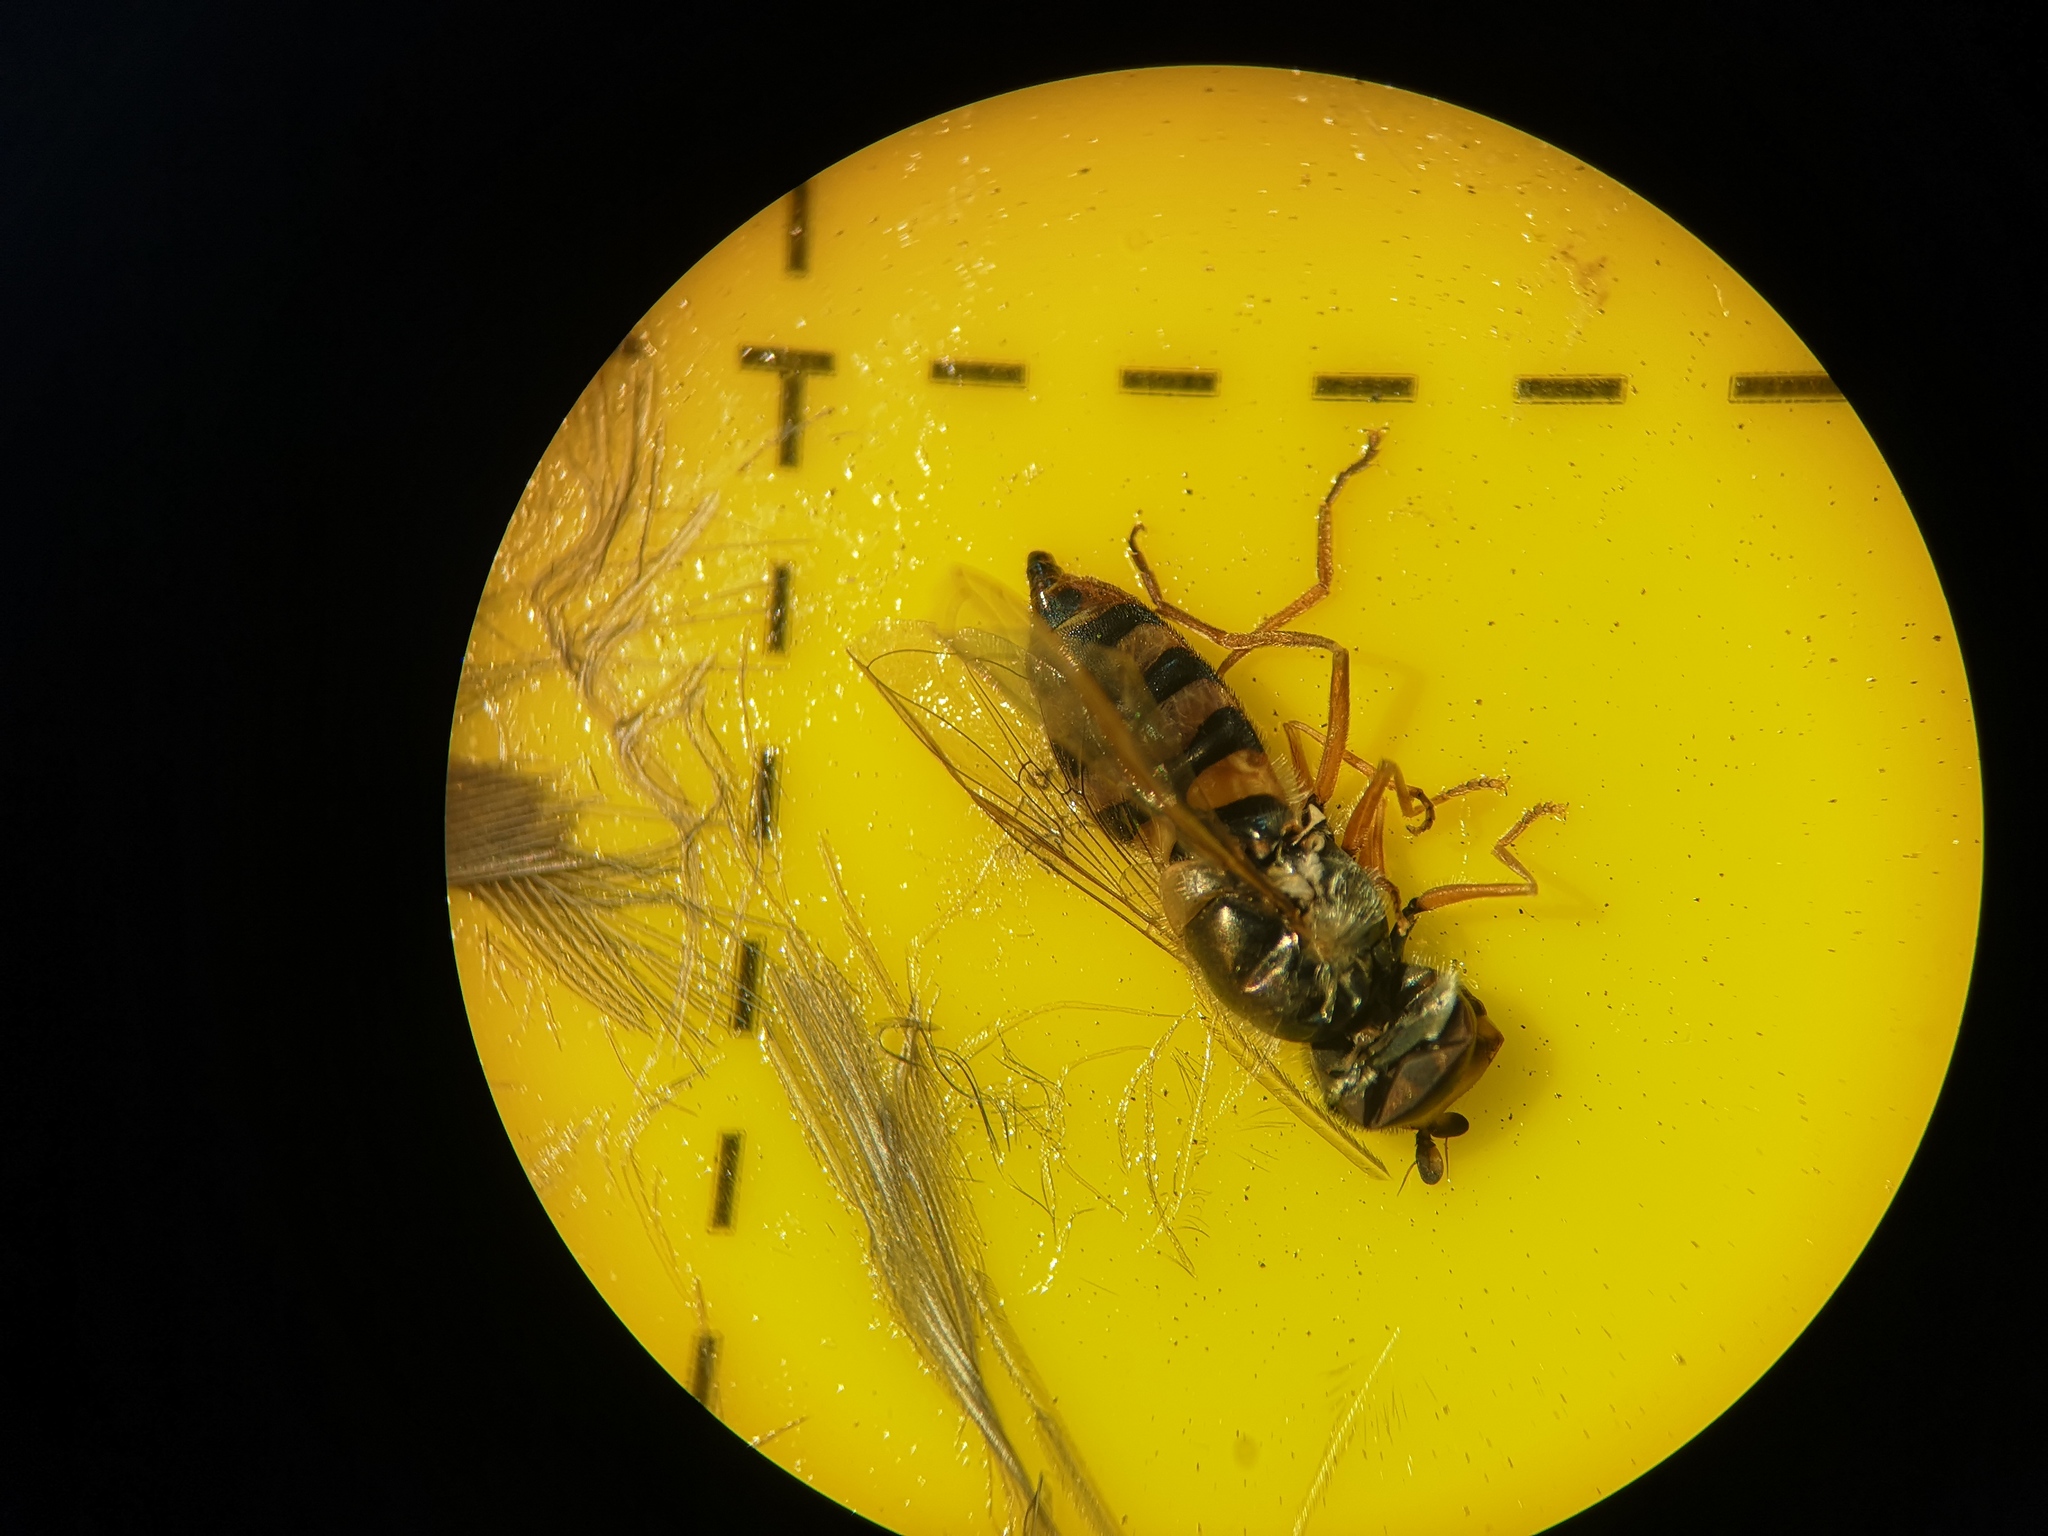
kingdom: Animalia
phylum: Arthropoda
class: Insecta
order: Diptera
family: Syrphidae
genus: Eupeodes
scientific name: Eupeodes corollae
